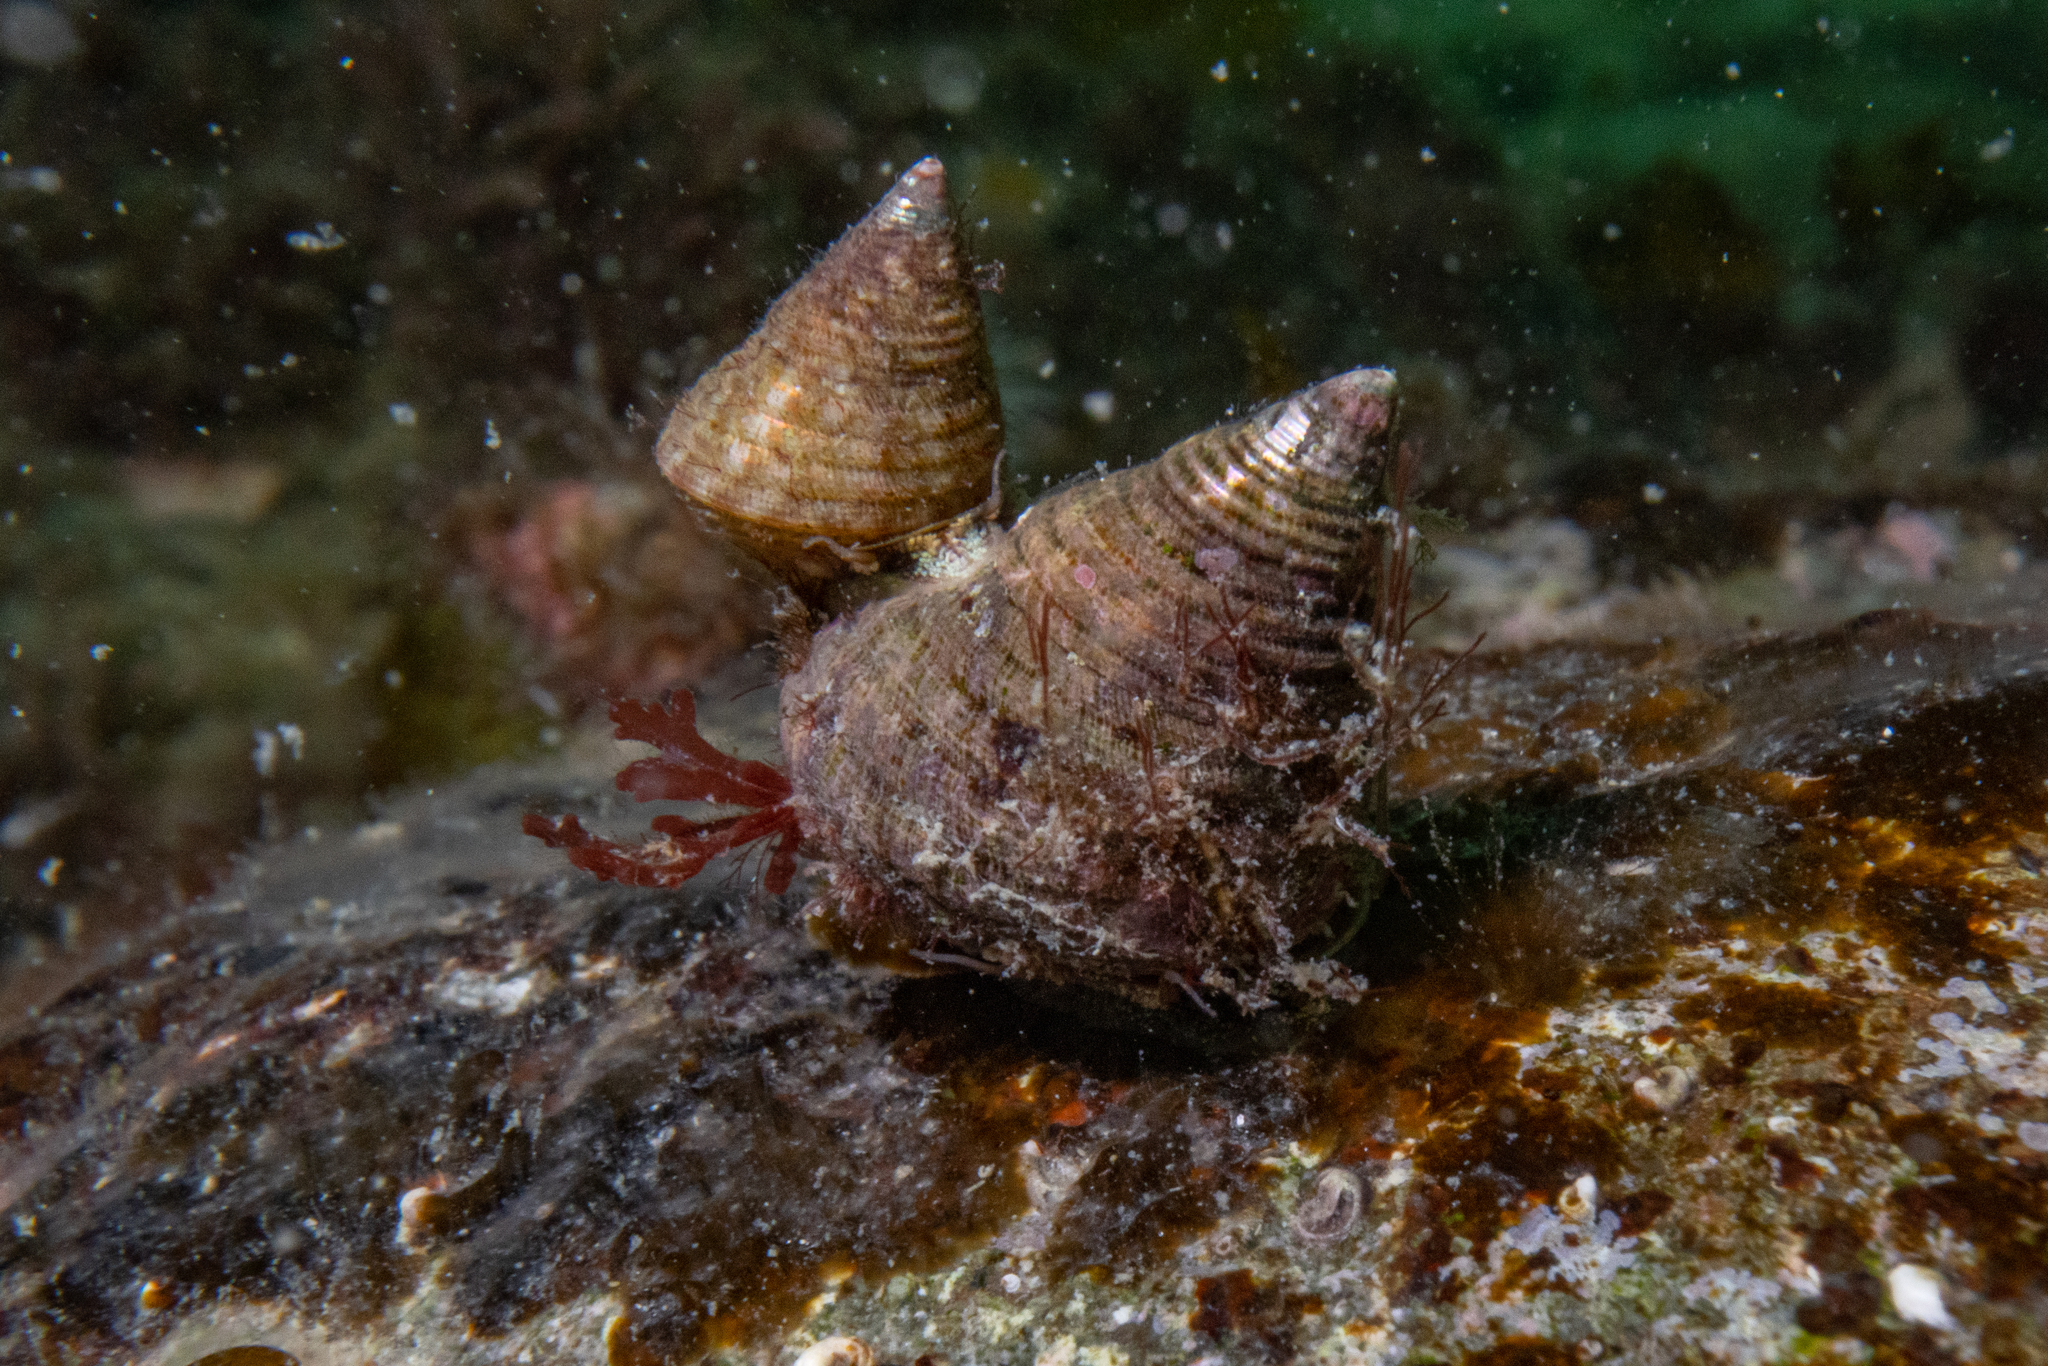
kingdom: Animalia
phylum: Mollusca
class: Gastropoda
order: Trochida
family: Trochidae
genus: Micrelenchus
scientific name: Micrelenchus purpureus
